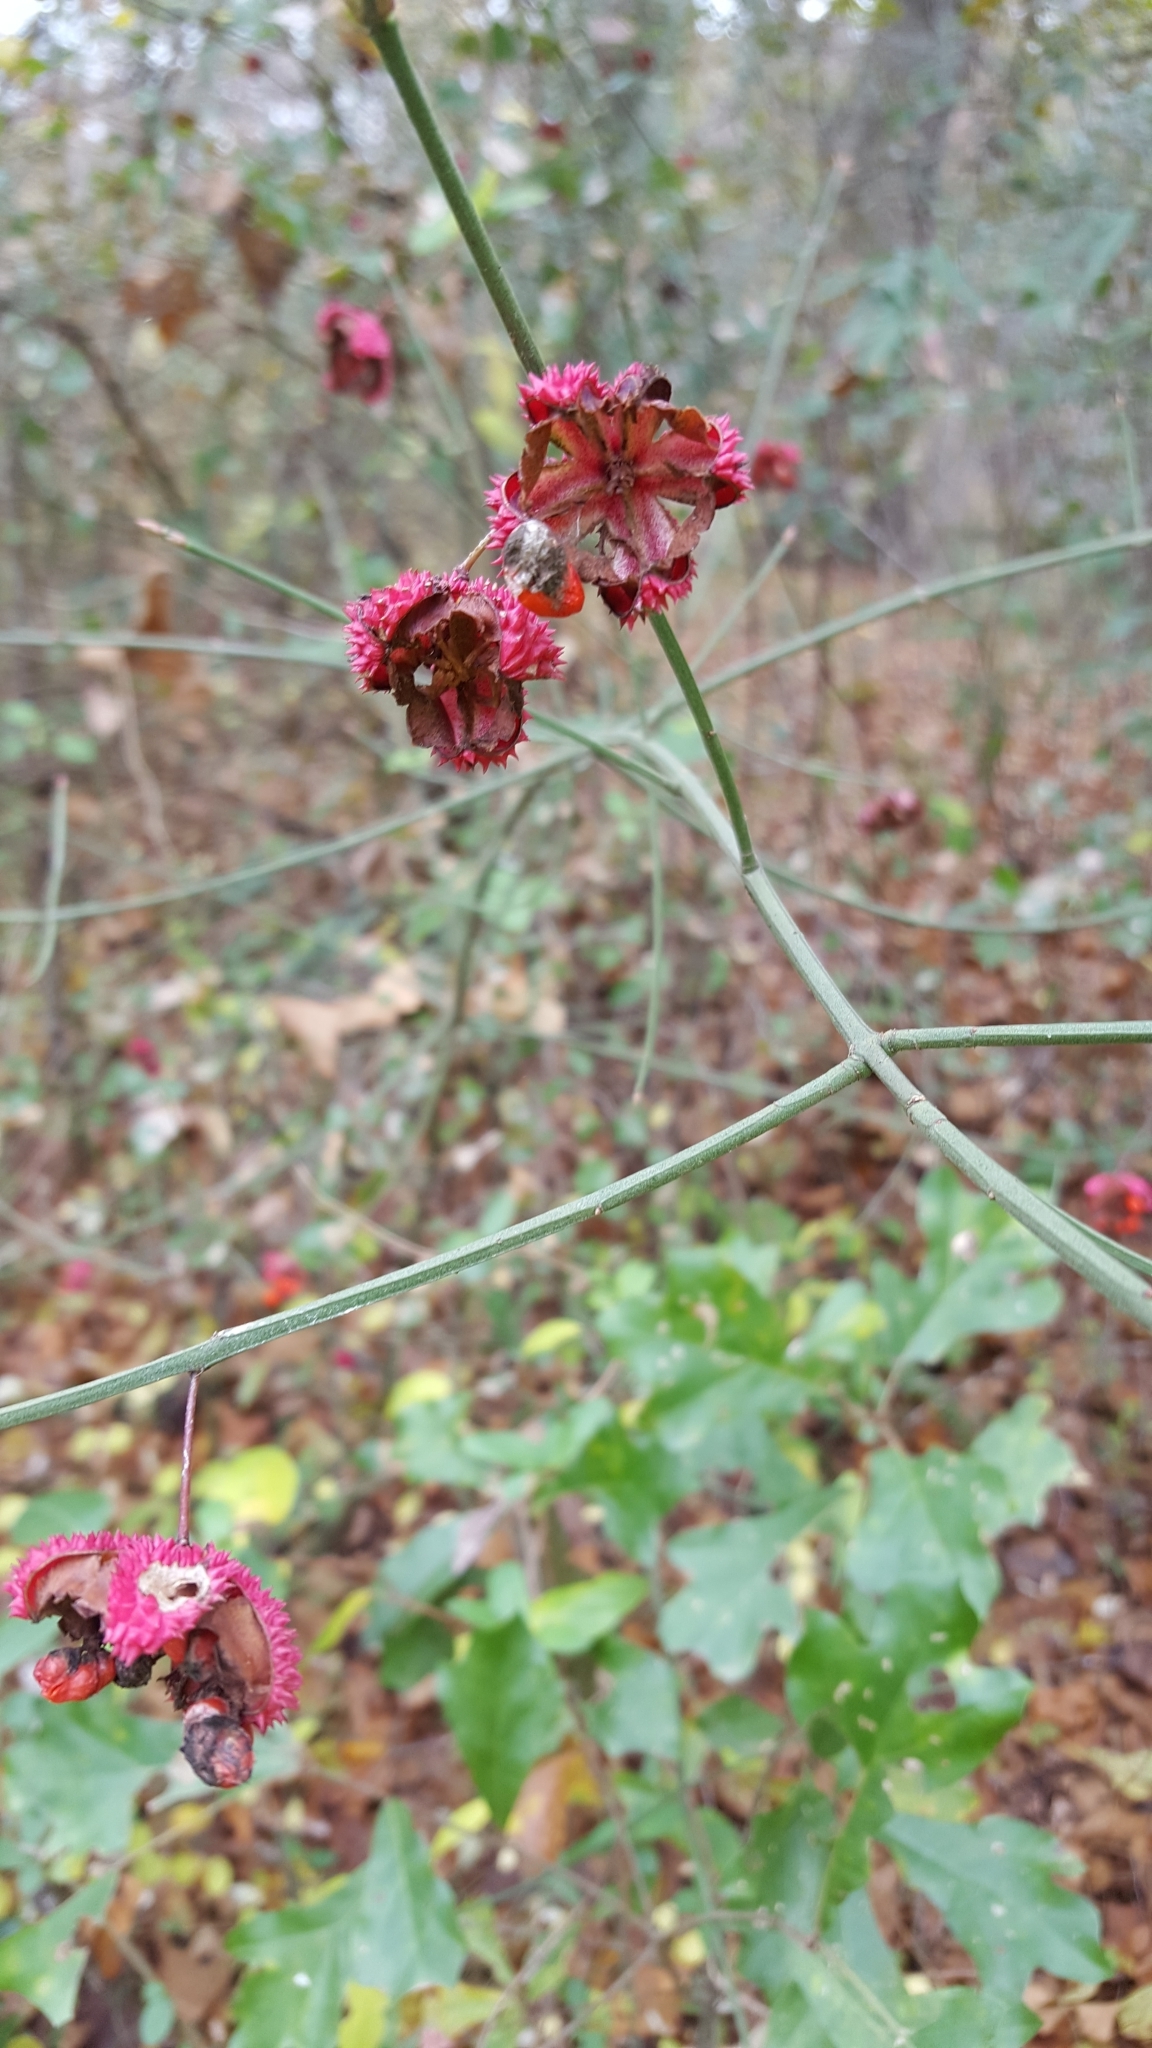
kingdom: Plantae
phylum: Tracheophyta
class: Magnoliopsida
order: Celastrales
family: Celastraceae
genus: Euonymus
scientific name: Euonymus americanus
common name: Bursting-heart
